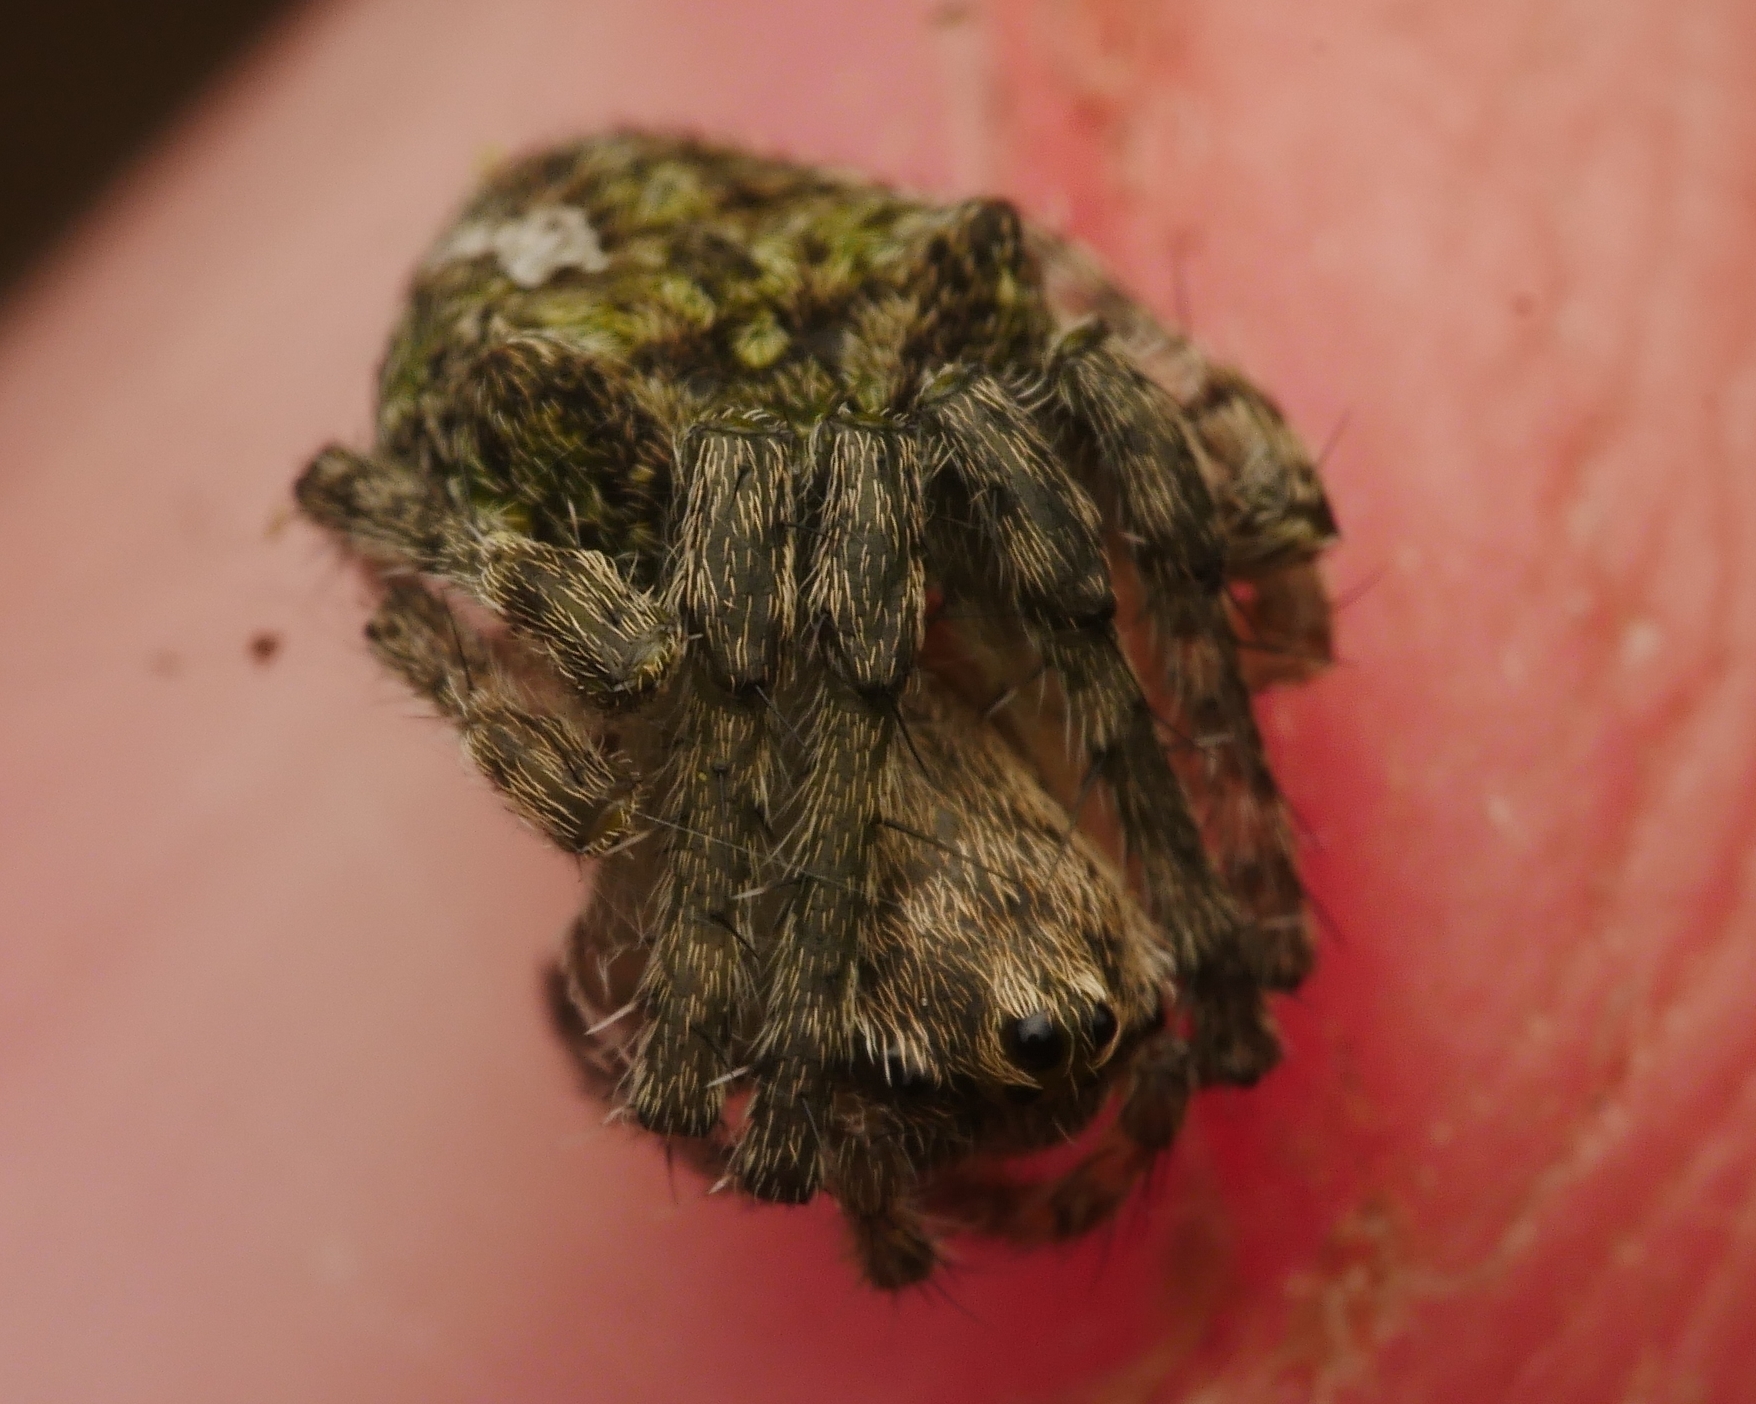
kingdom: Animalia
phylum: Arthropoda
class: Arachnida
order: Araneae
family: Araneidae
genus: Gibbaranea
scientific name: Gibbaranea gibbosa
